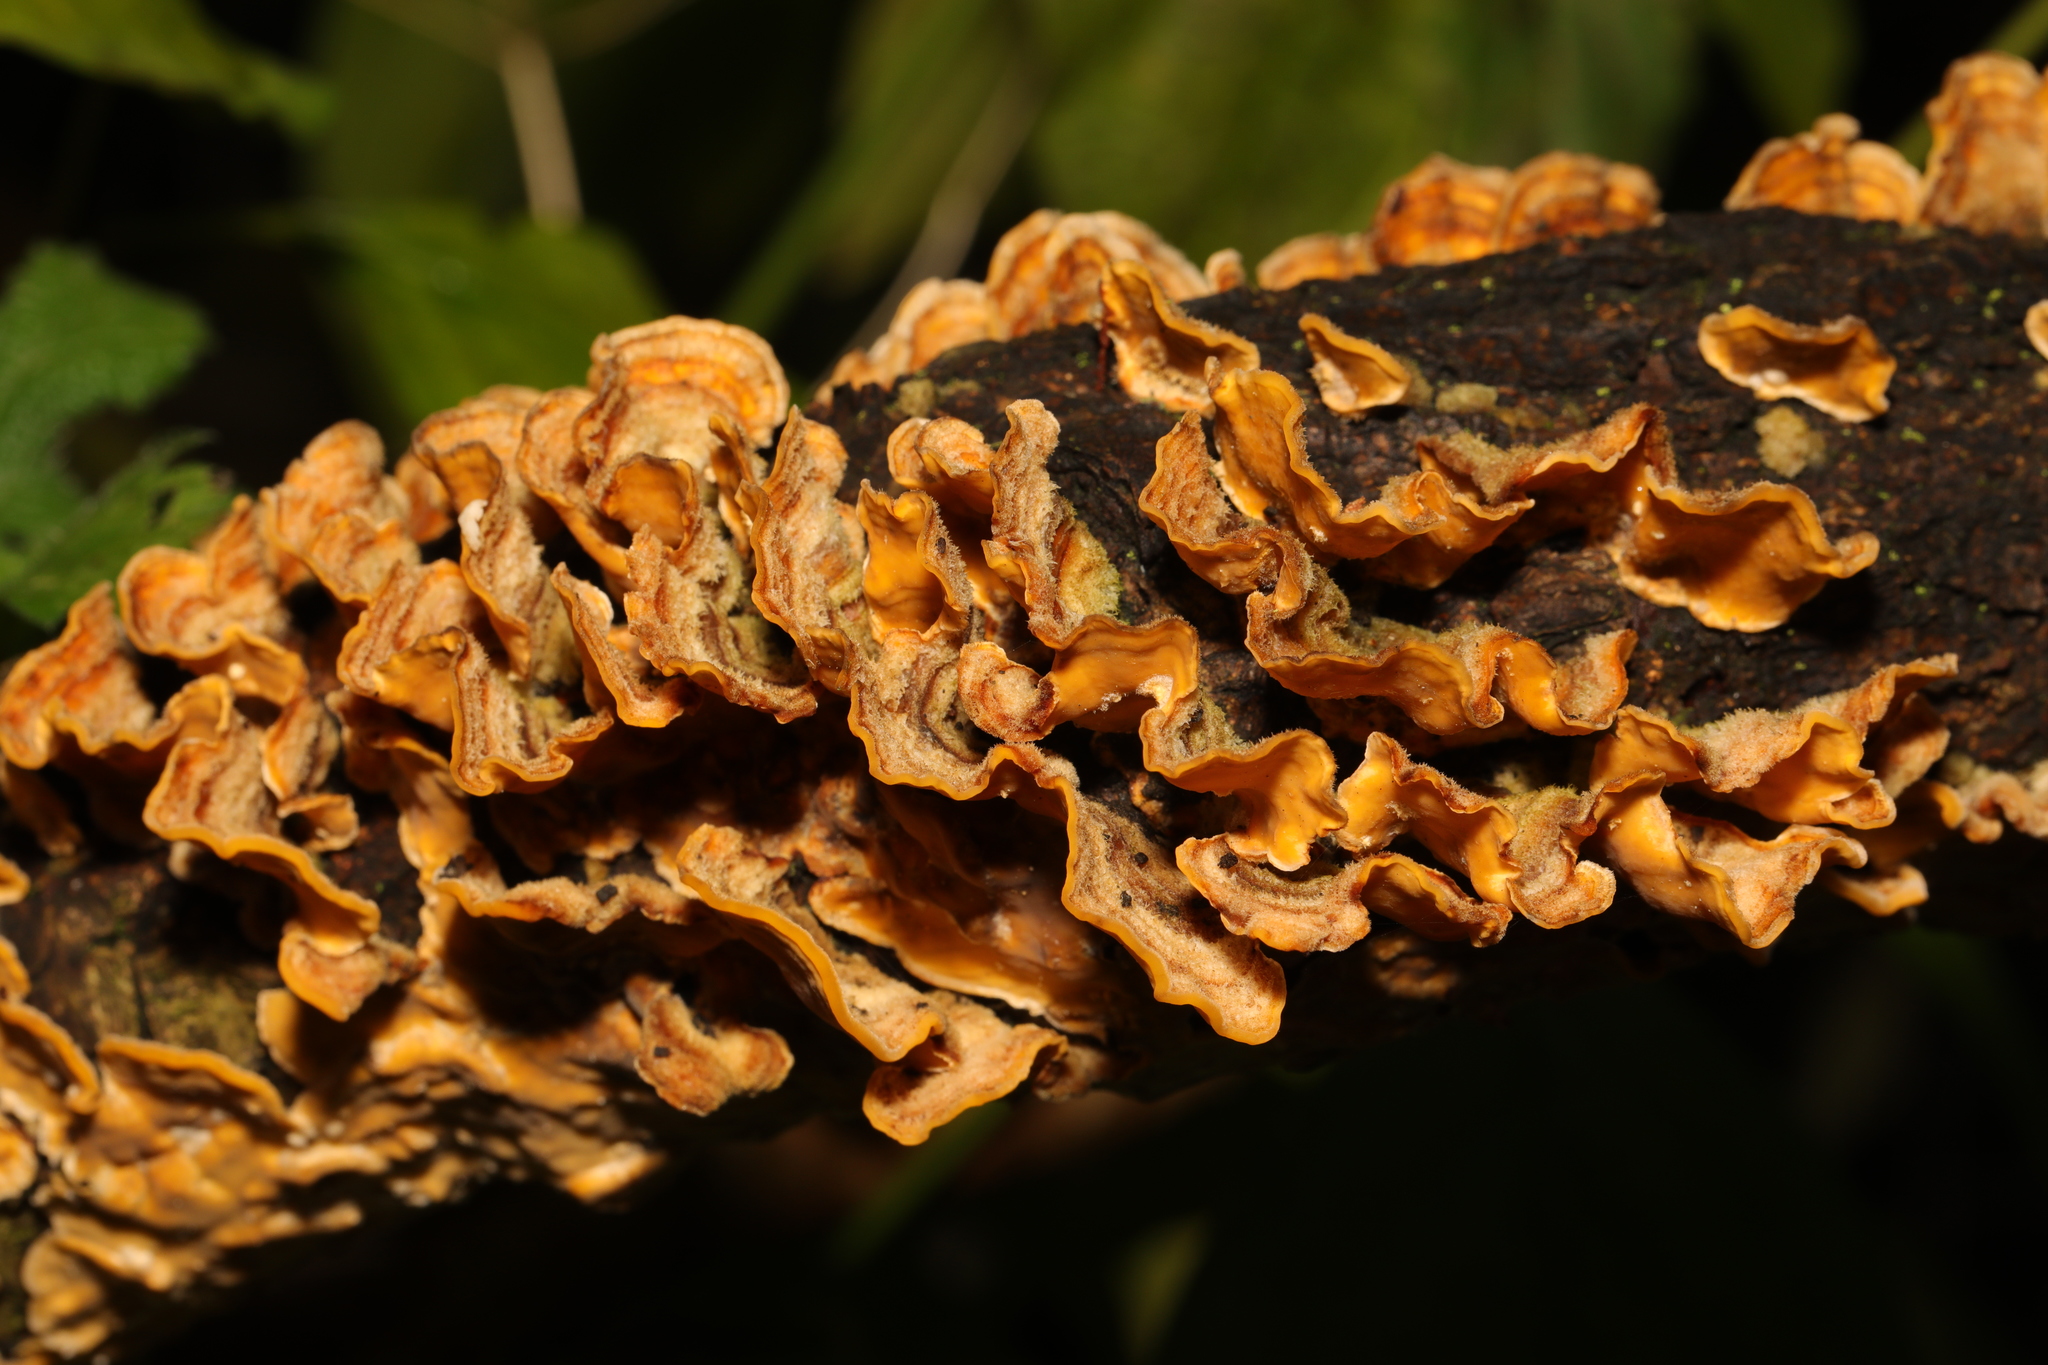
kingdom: Fungi
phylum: Basidiomycota
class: Agaricomycetes
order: Russulales
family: Stereaceae
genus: Stereum
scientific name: Stereum hirsutum
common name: Hairy curtain crust
